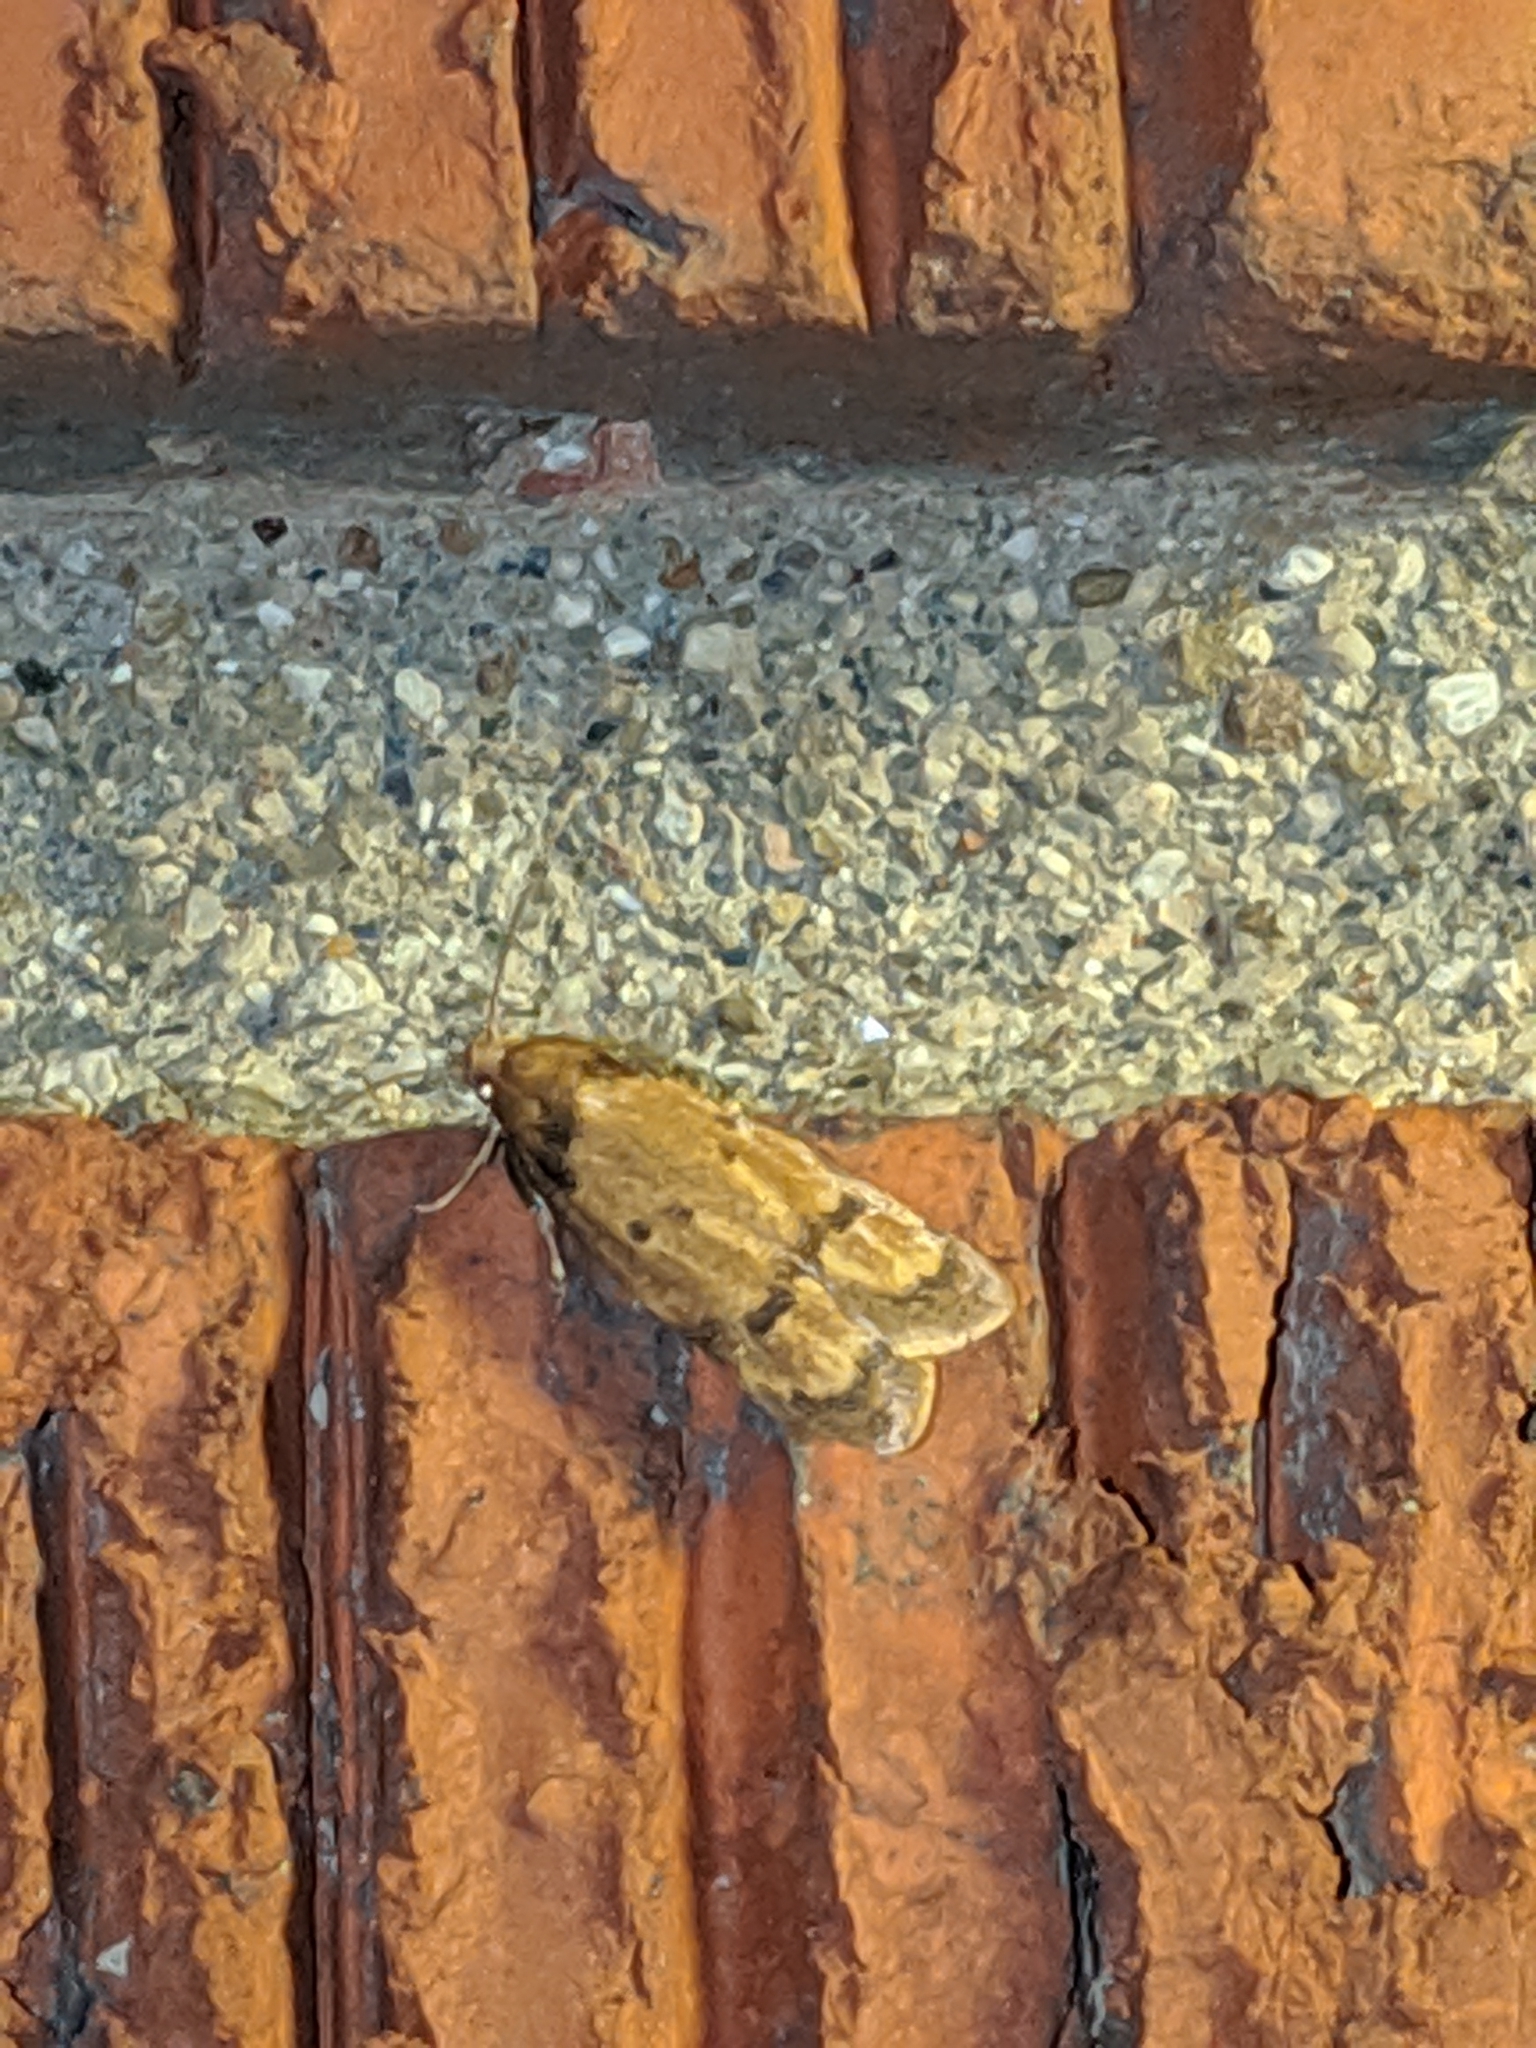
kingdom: Animalia
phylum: Arthropoda
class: Insecta
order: Lepidoptera
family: Autostichidae
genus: Gerdana
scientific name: Gerdana caritella
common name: Gerdana moth
